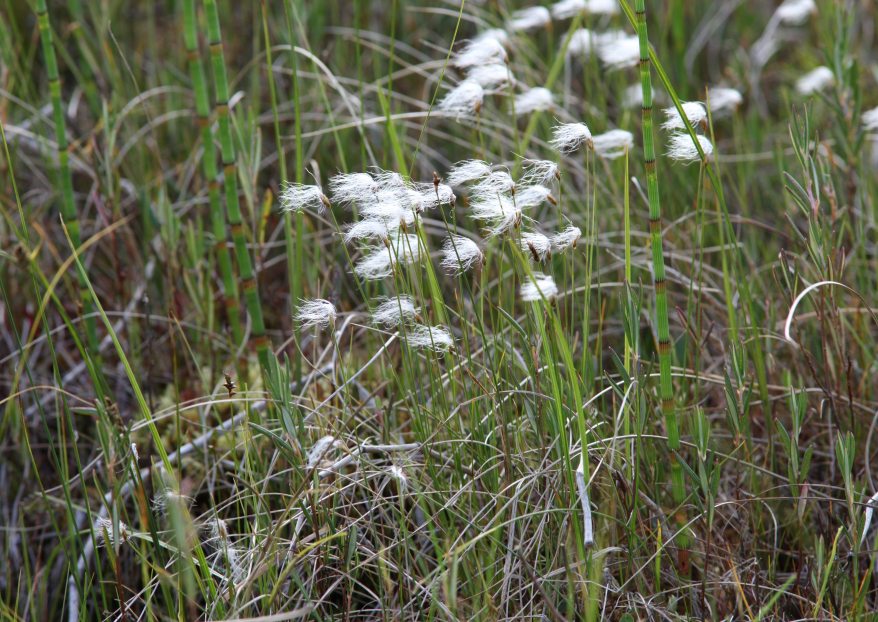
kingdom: Plantae
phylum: Tracheophyta
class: Liliopsida
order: Poales
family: Cyperaceae
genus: Trichophorum
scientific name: Trichophorum alpinum
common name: Alpine bulrush
